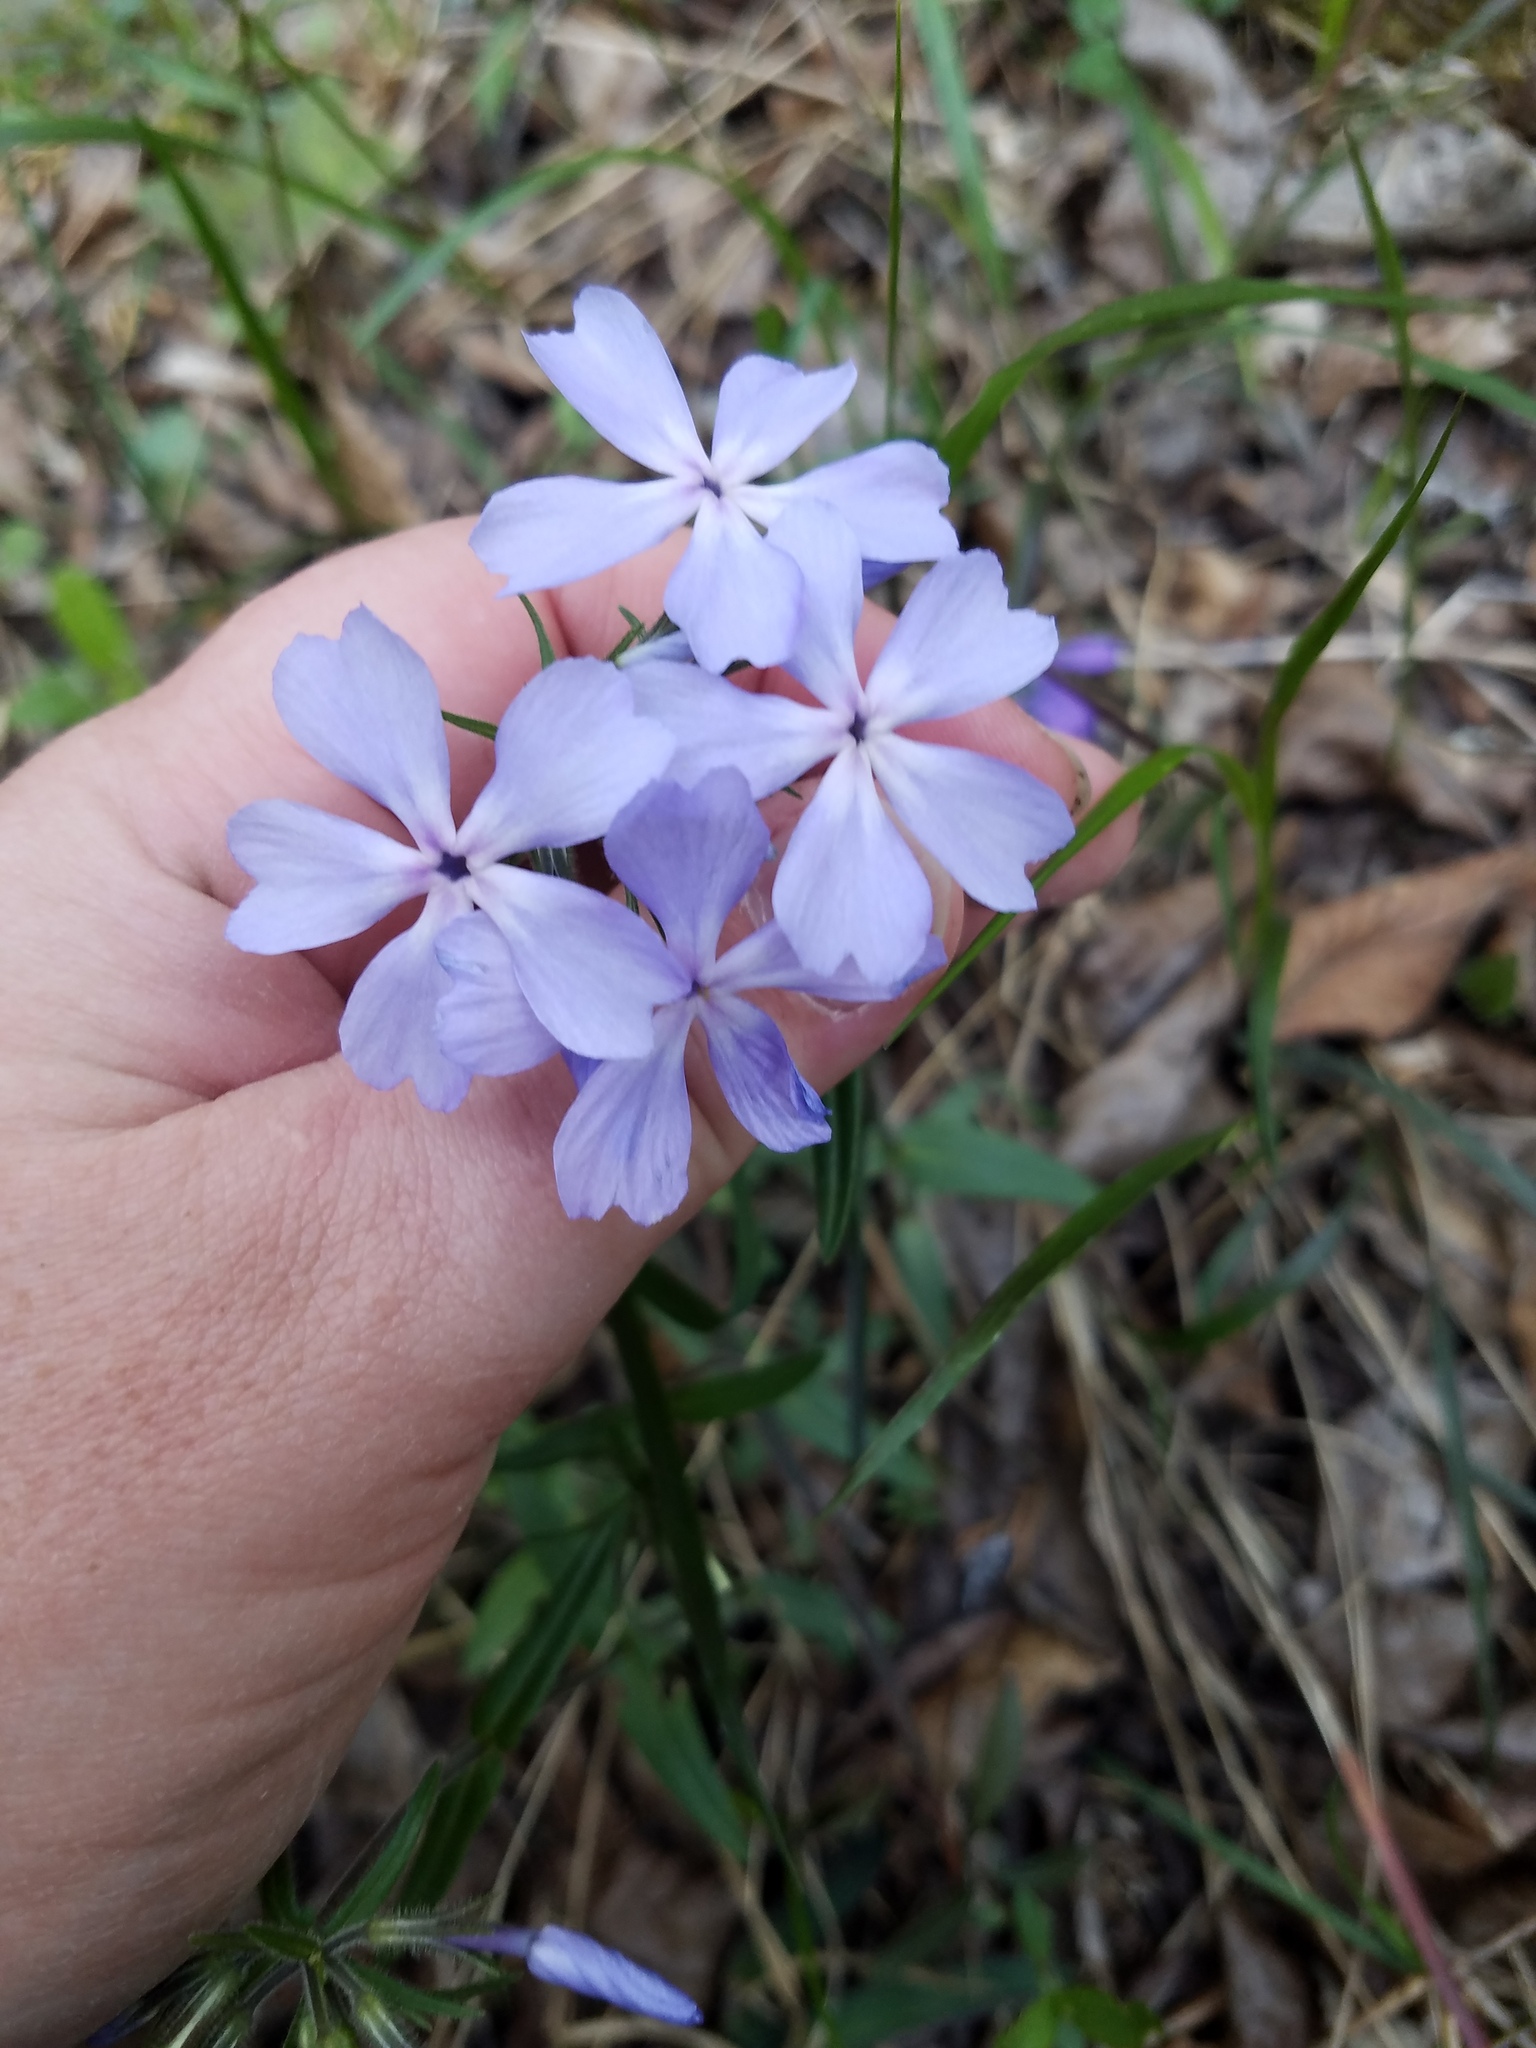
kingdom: Plantae
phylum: Tracheophyta
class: Magnoliopsida
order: Ericales
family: Polemoniaceae
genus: Phlox
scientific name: Phlox divaricata
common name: Blue phlox
